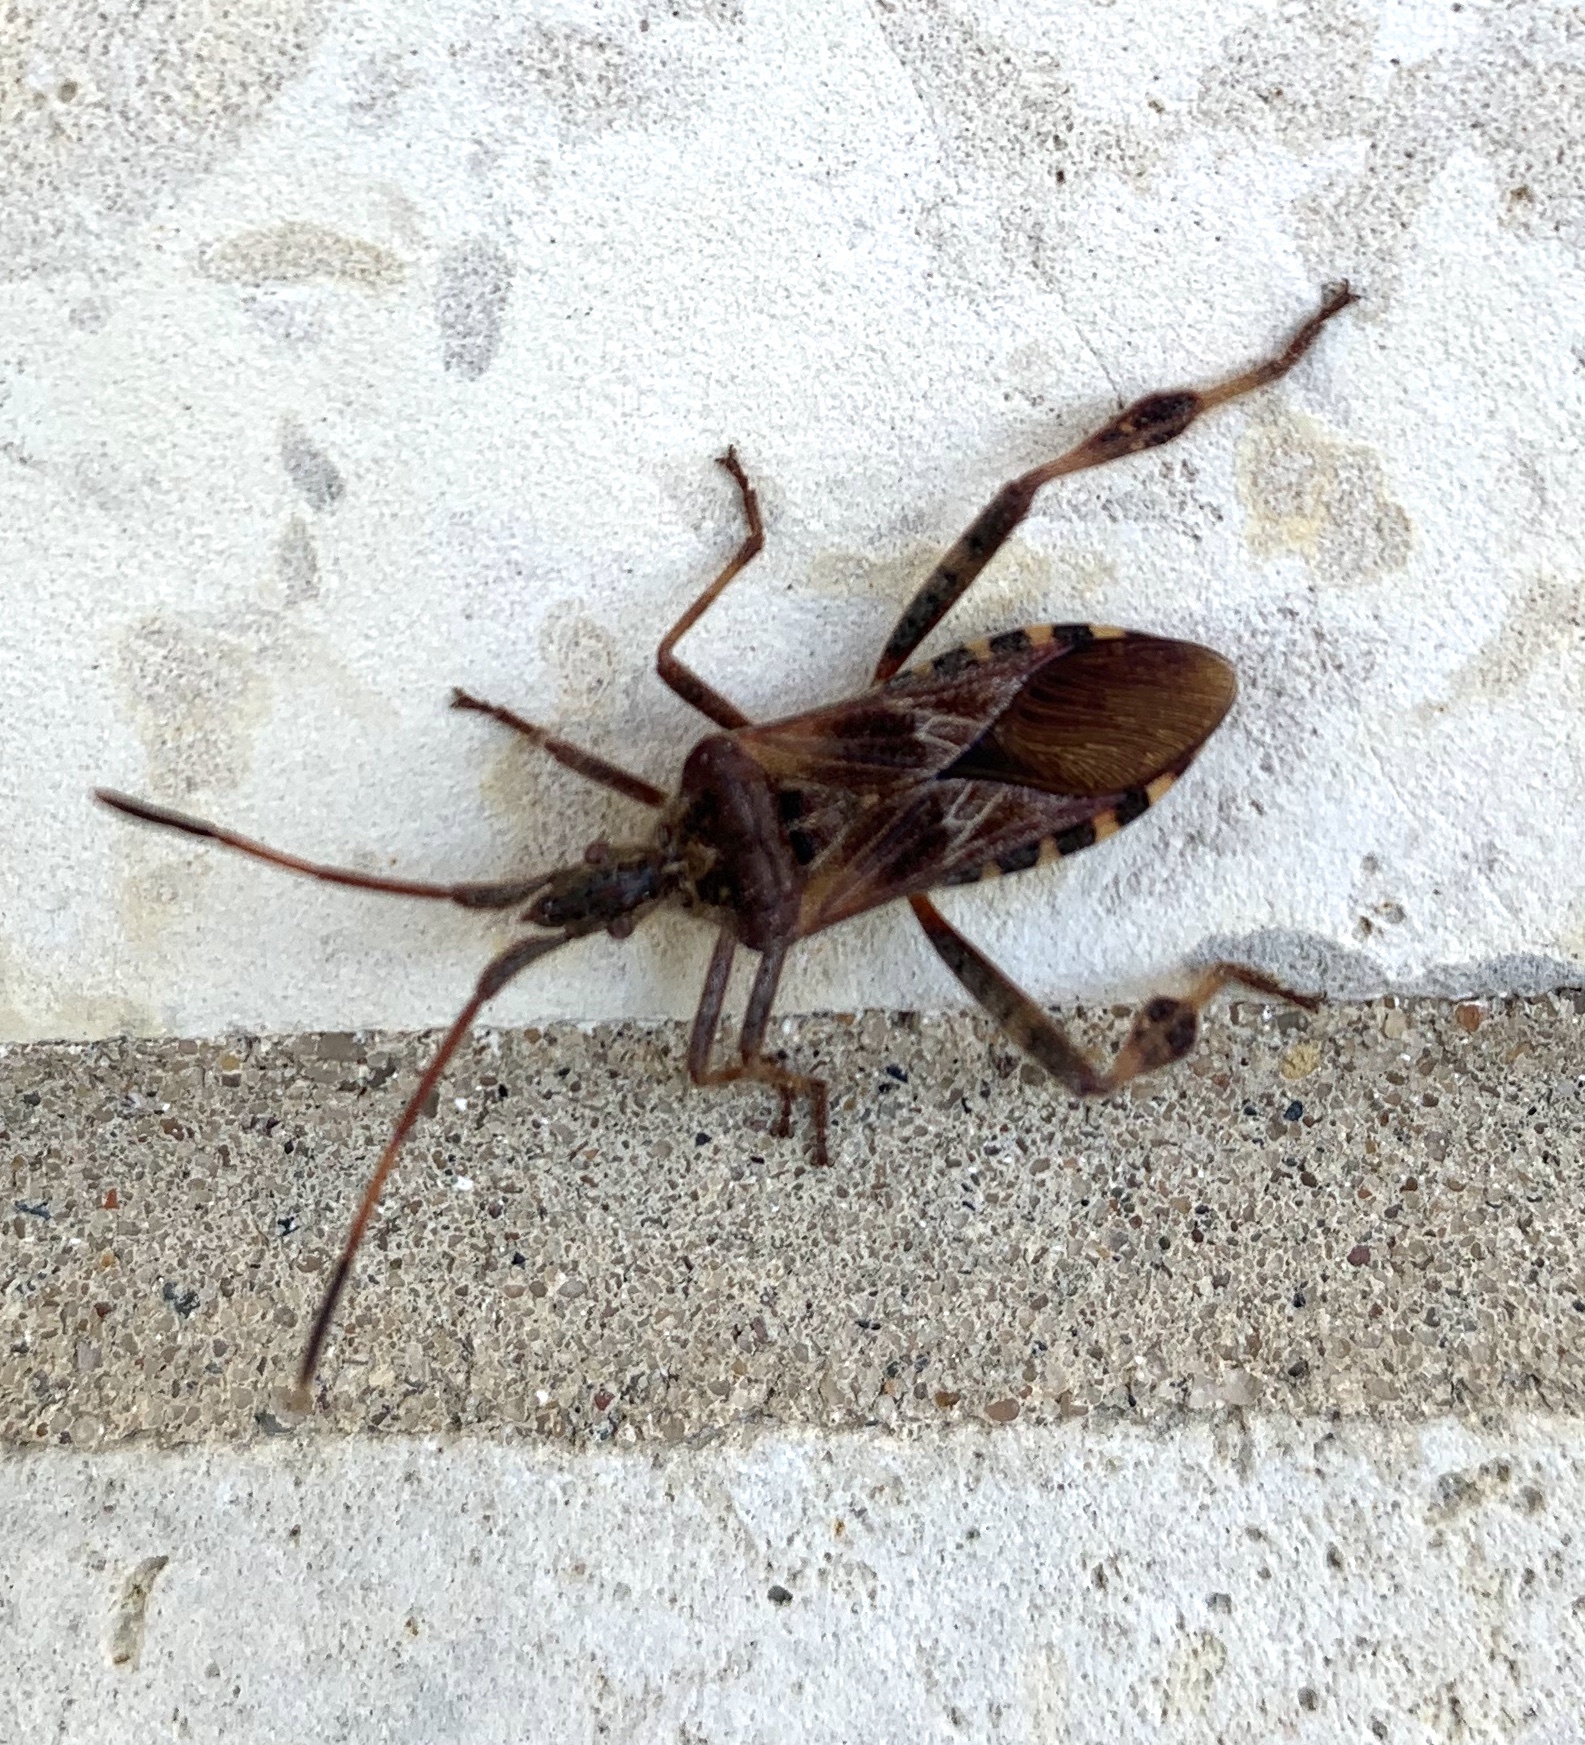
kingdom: Animalia
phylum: Arthropoda
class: Insecta
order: Hemiptera
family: Coreidae
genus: Leptoglossus
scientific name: Leptoglossus occidentalis
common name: Western conifer-seed bug
